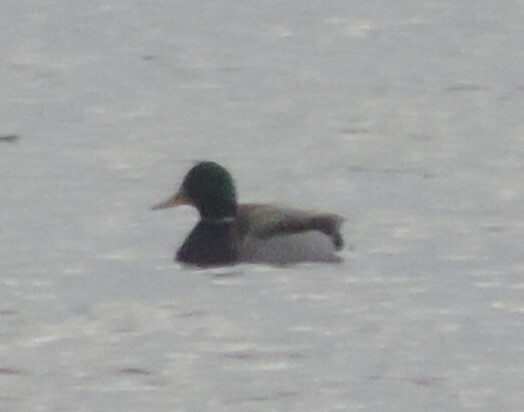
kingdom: Animalia
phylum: Chordata
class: Aves
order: Anseriformes
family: Anatidae
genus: Anas
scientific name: Anas platyrhynchos
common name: Mallard
